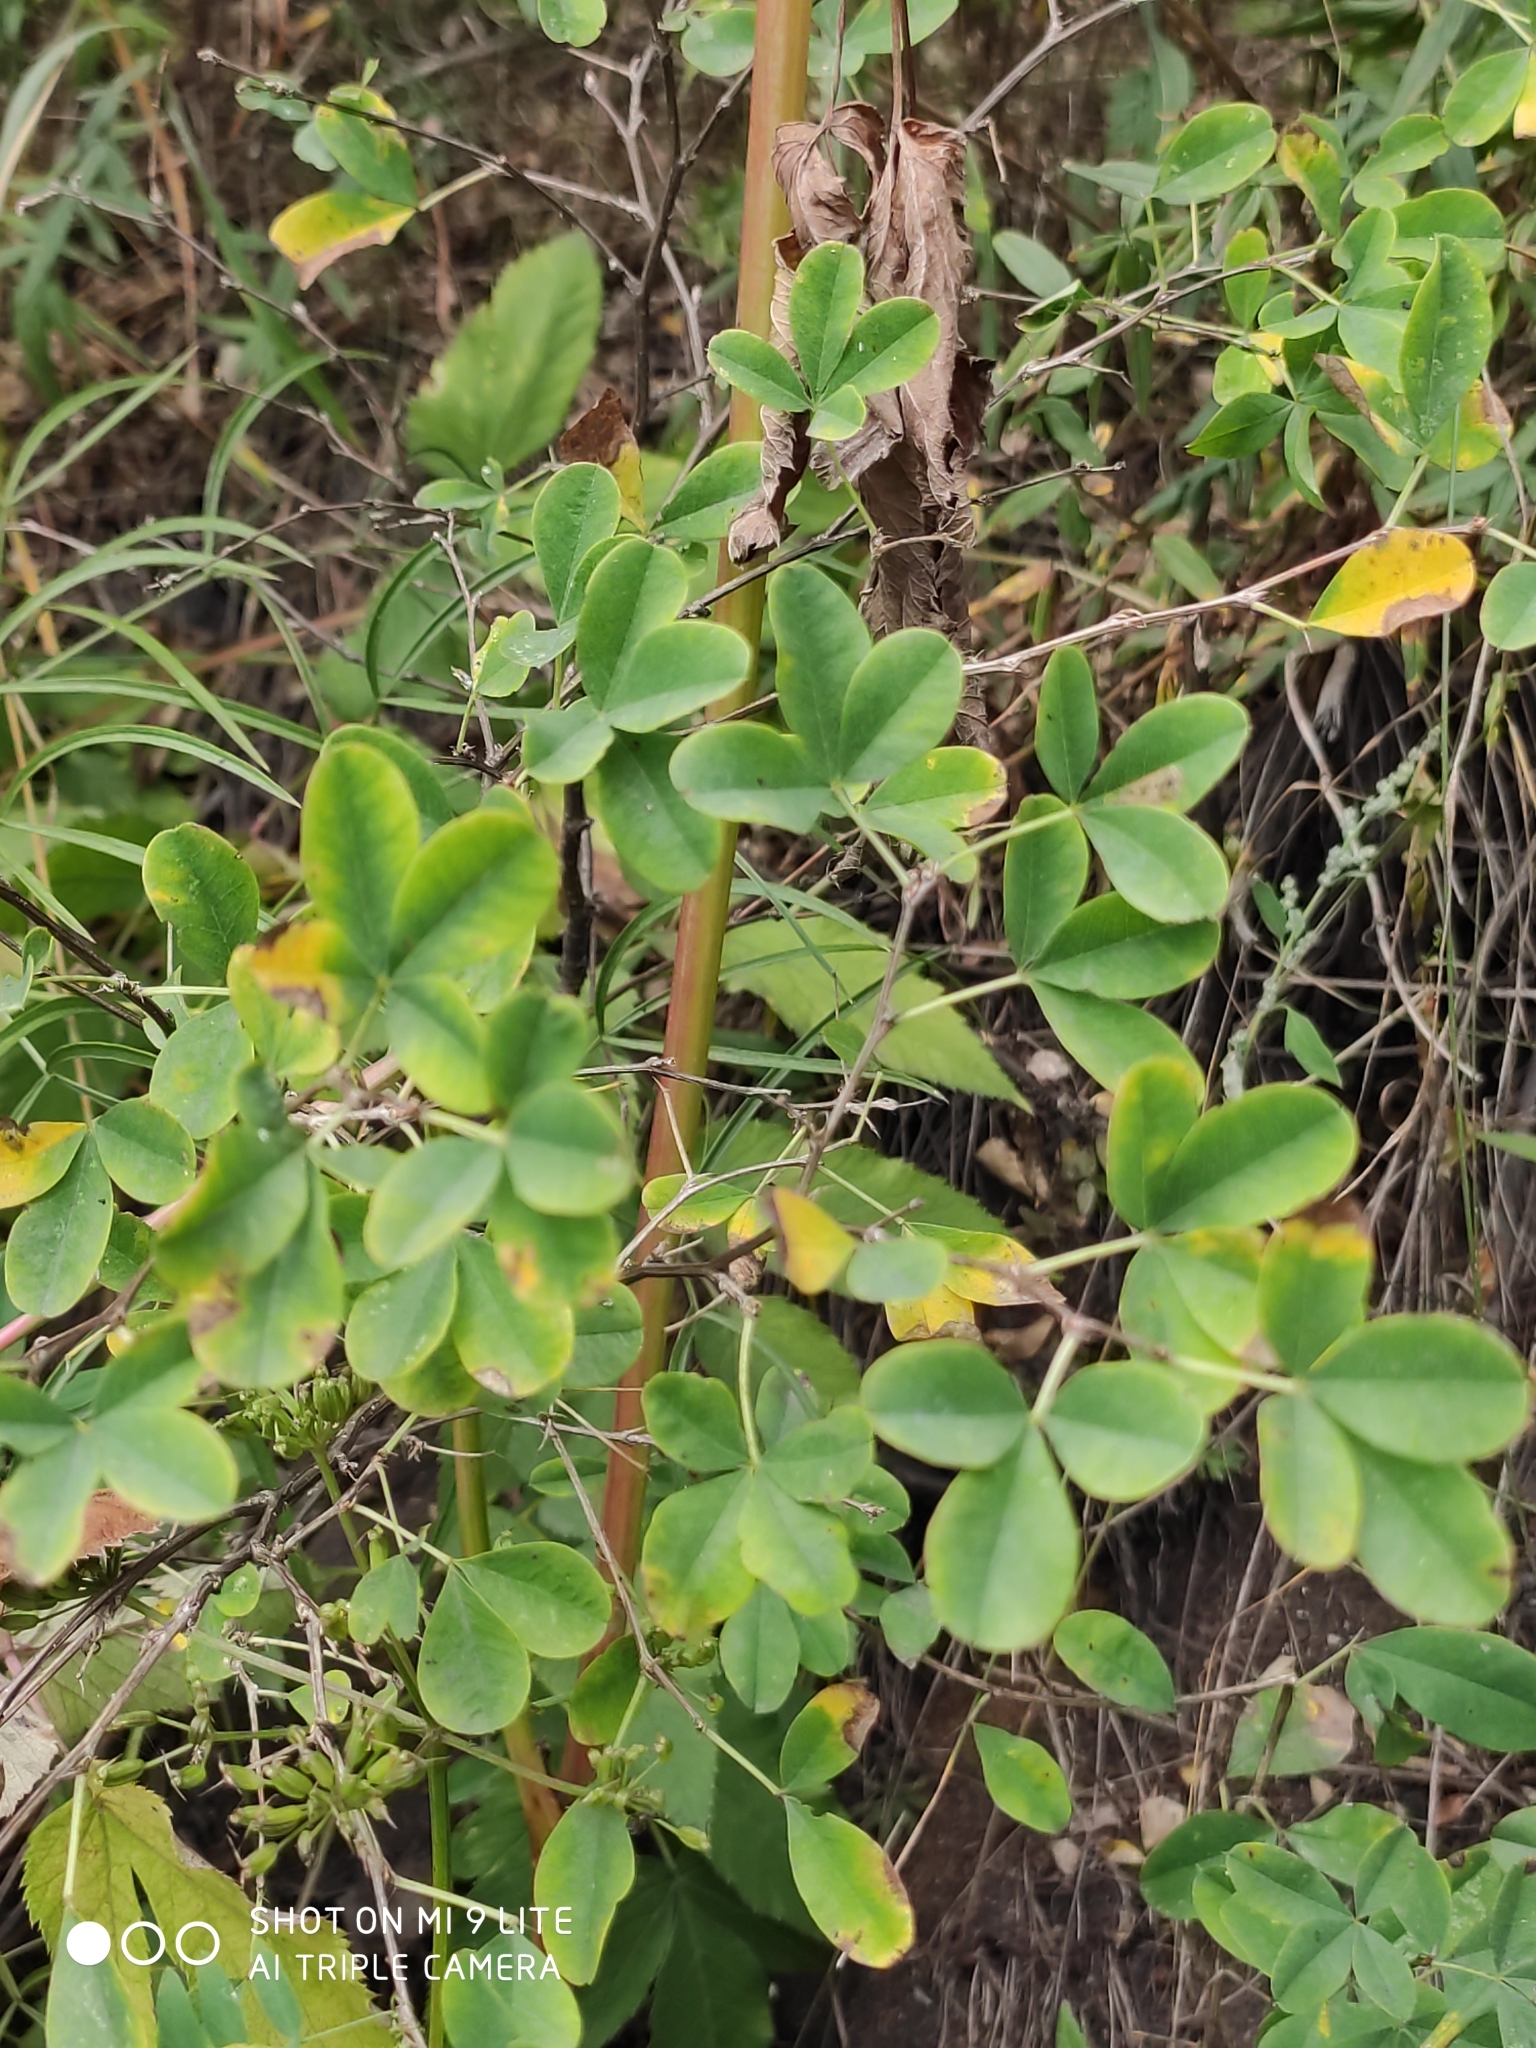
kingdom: Plantae
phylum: Tracheophyta
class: Magnoliopsida
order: Fabales
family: Fabaceae
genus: Caragana
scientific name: Caragana frutex
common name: Russian peashrub
